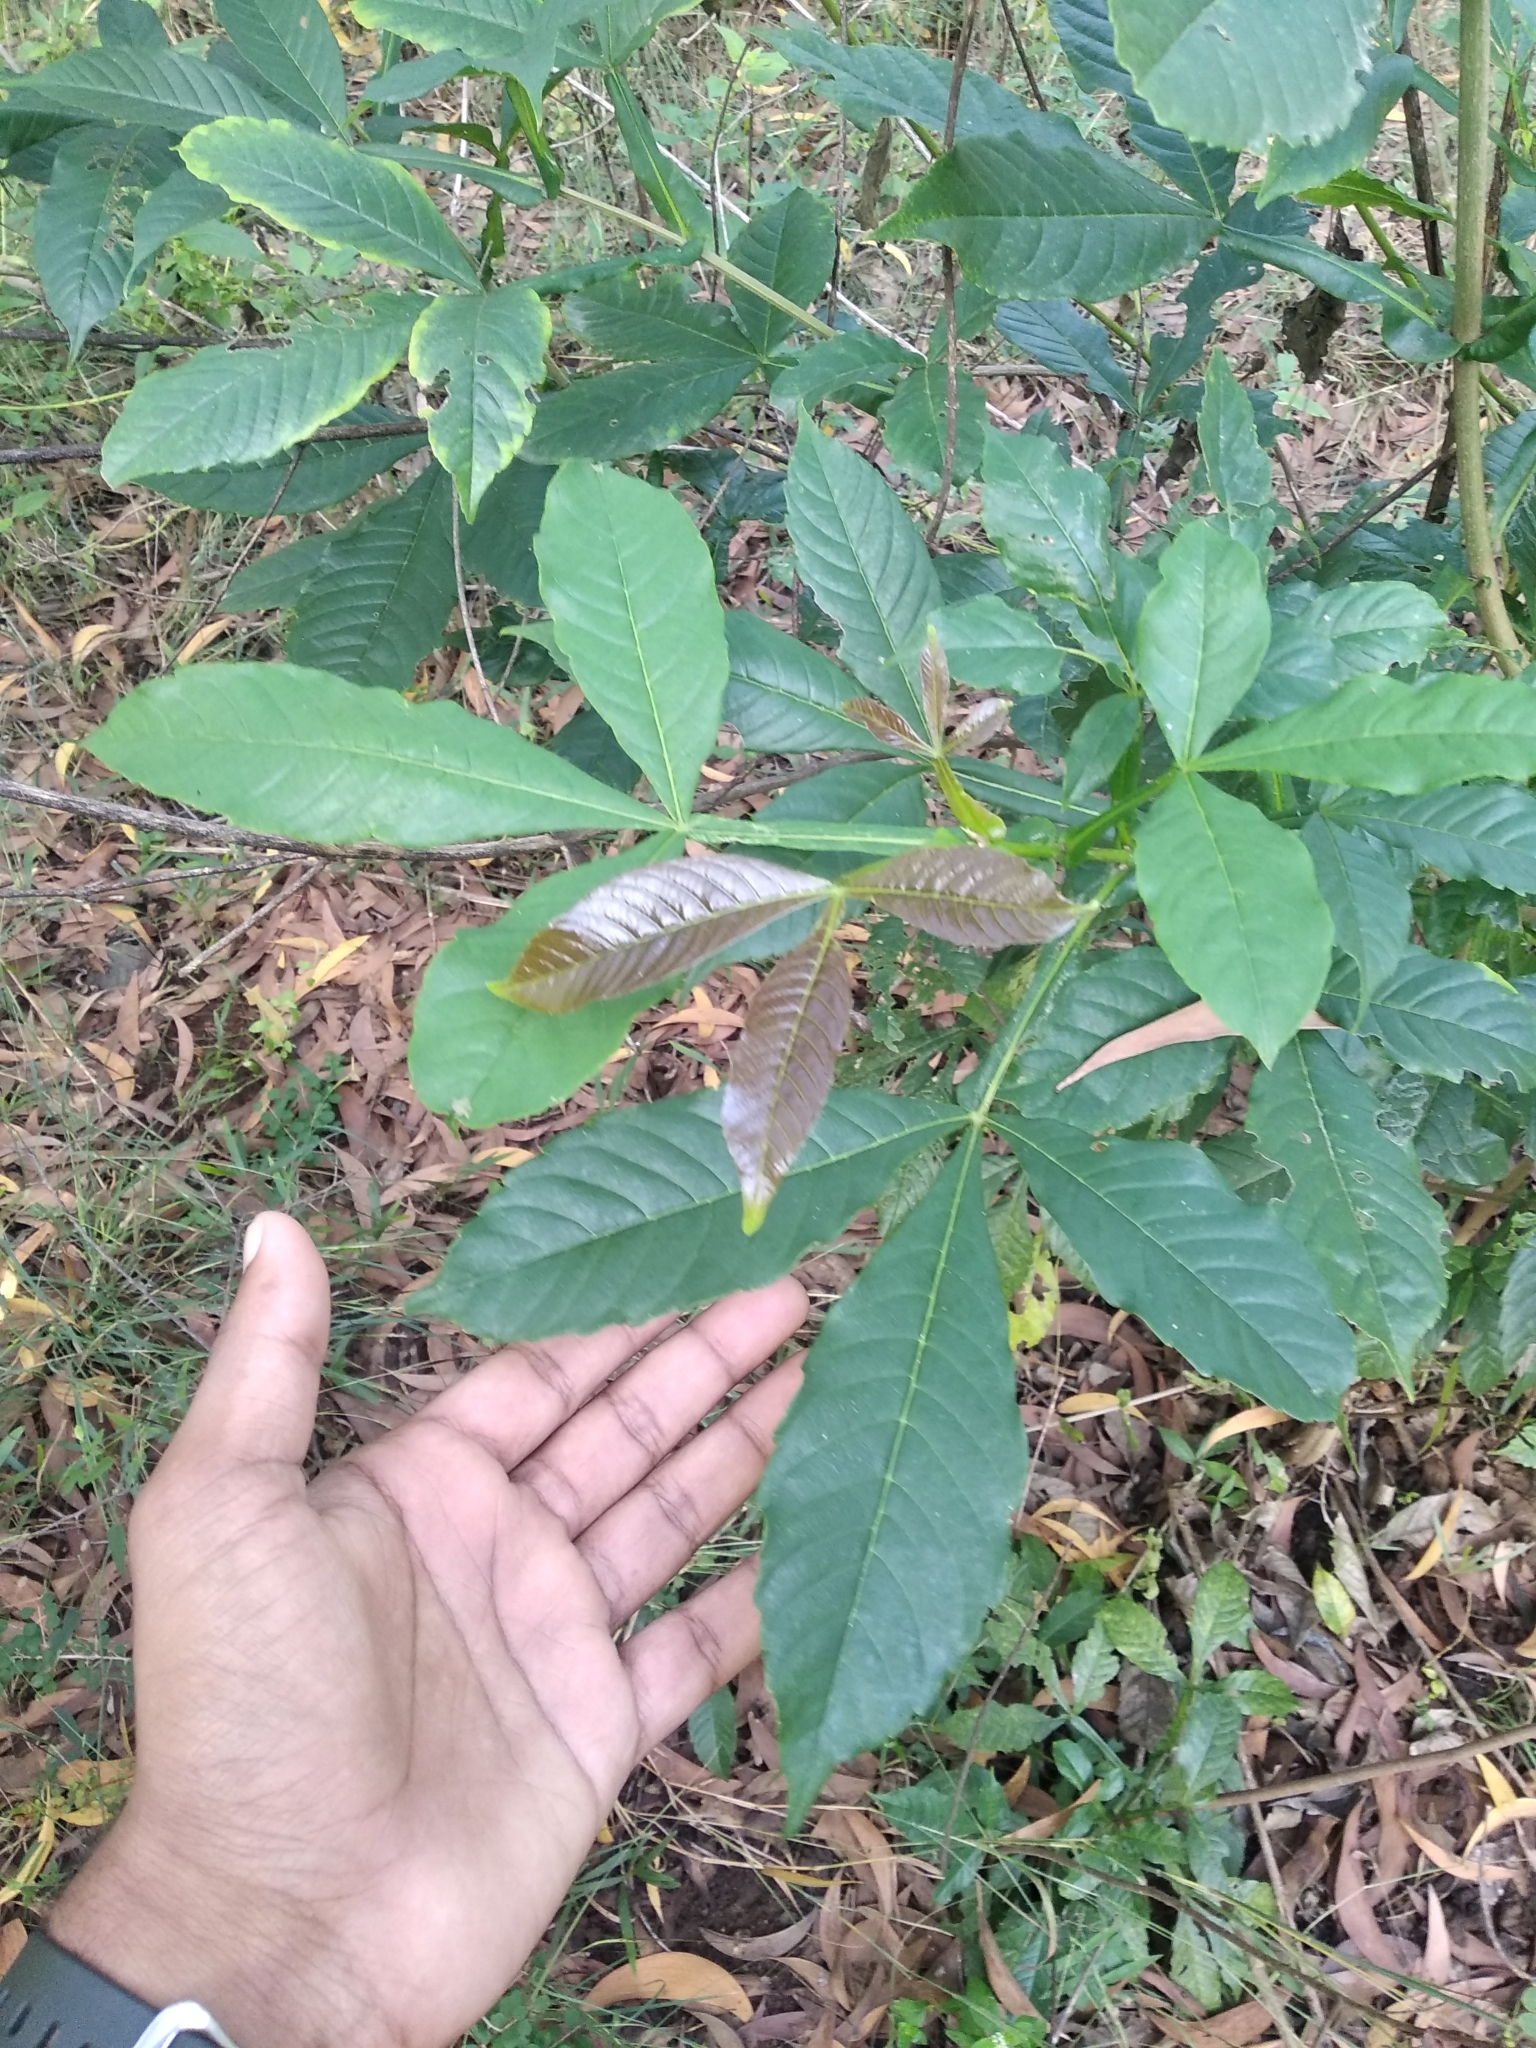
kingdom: Plantae
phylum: Tracheophyta
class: Magnoliopsida
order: Lamiales
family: Lamiaceae
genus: Vitex
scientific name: Vitex altissima
